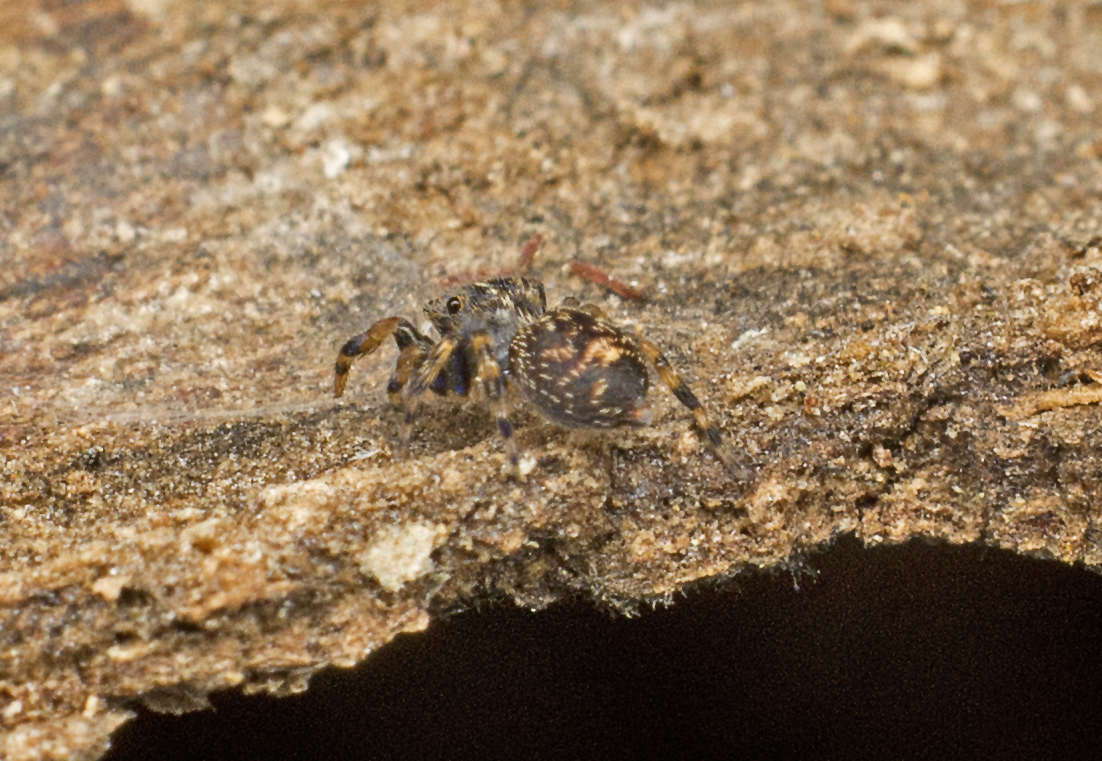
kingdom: Animalia
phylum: Arthropoda
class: Arachnida
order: Araneae
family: Salticidae
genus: Papuaneon
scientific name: Papuaneon eungella
